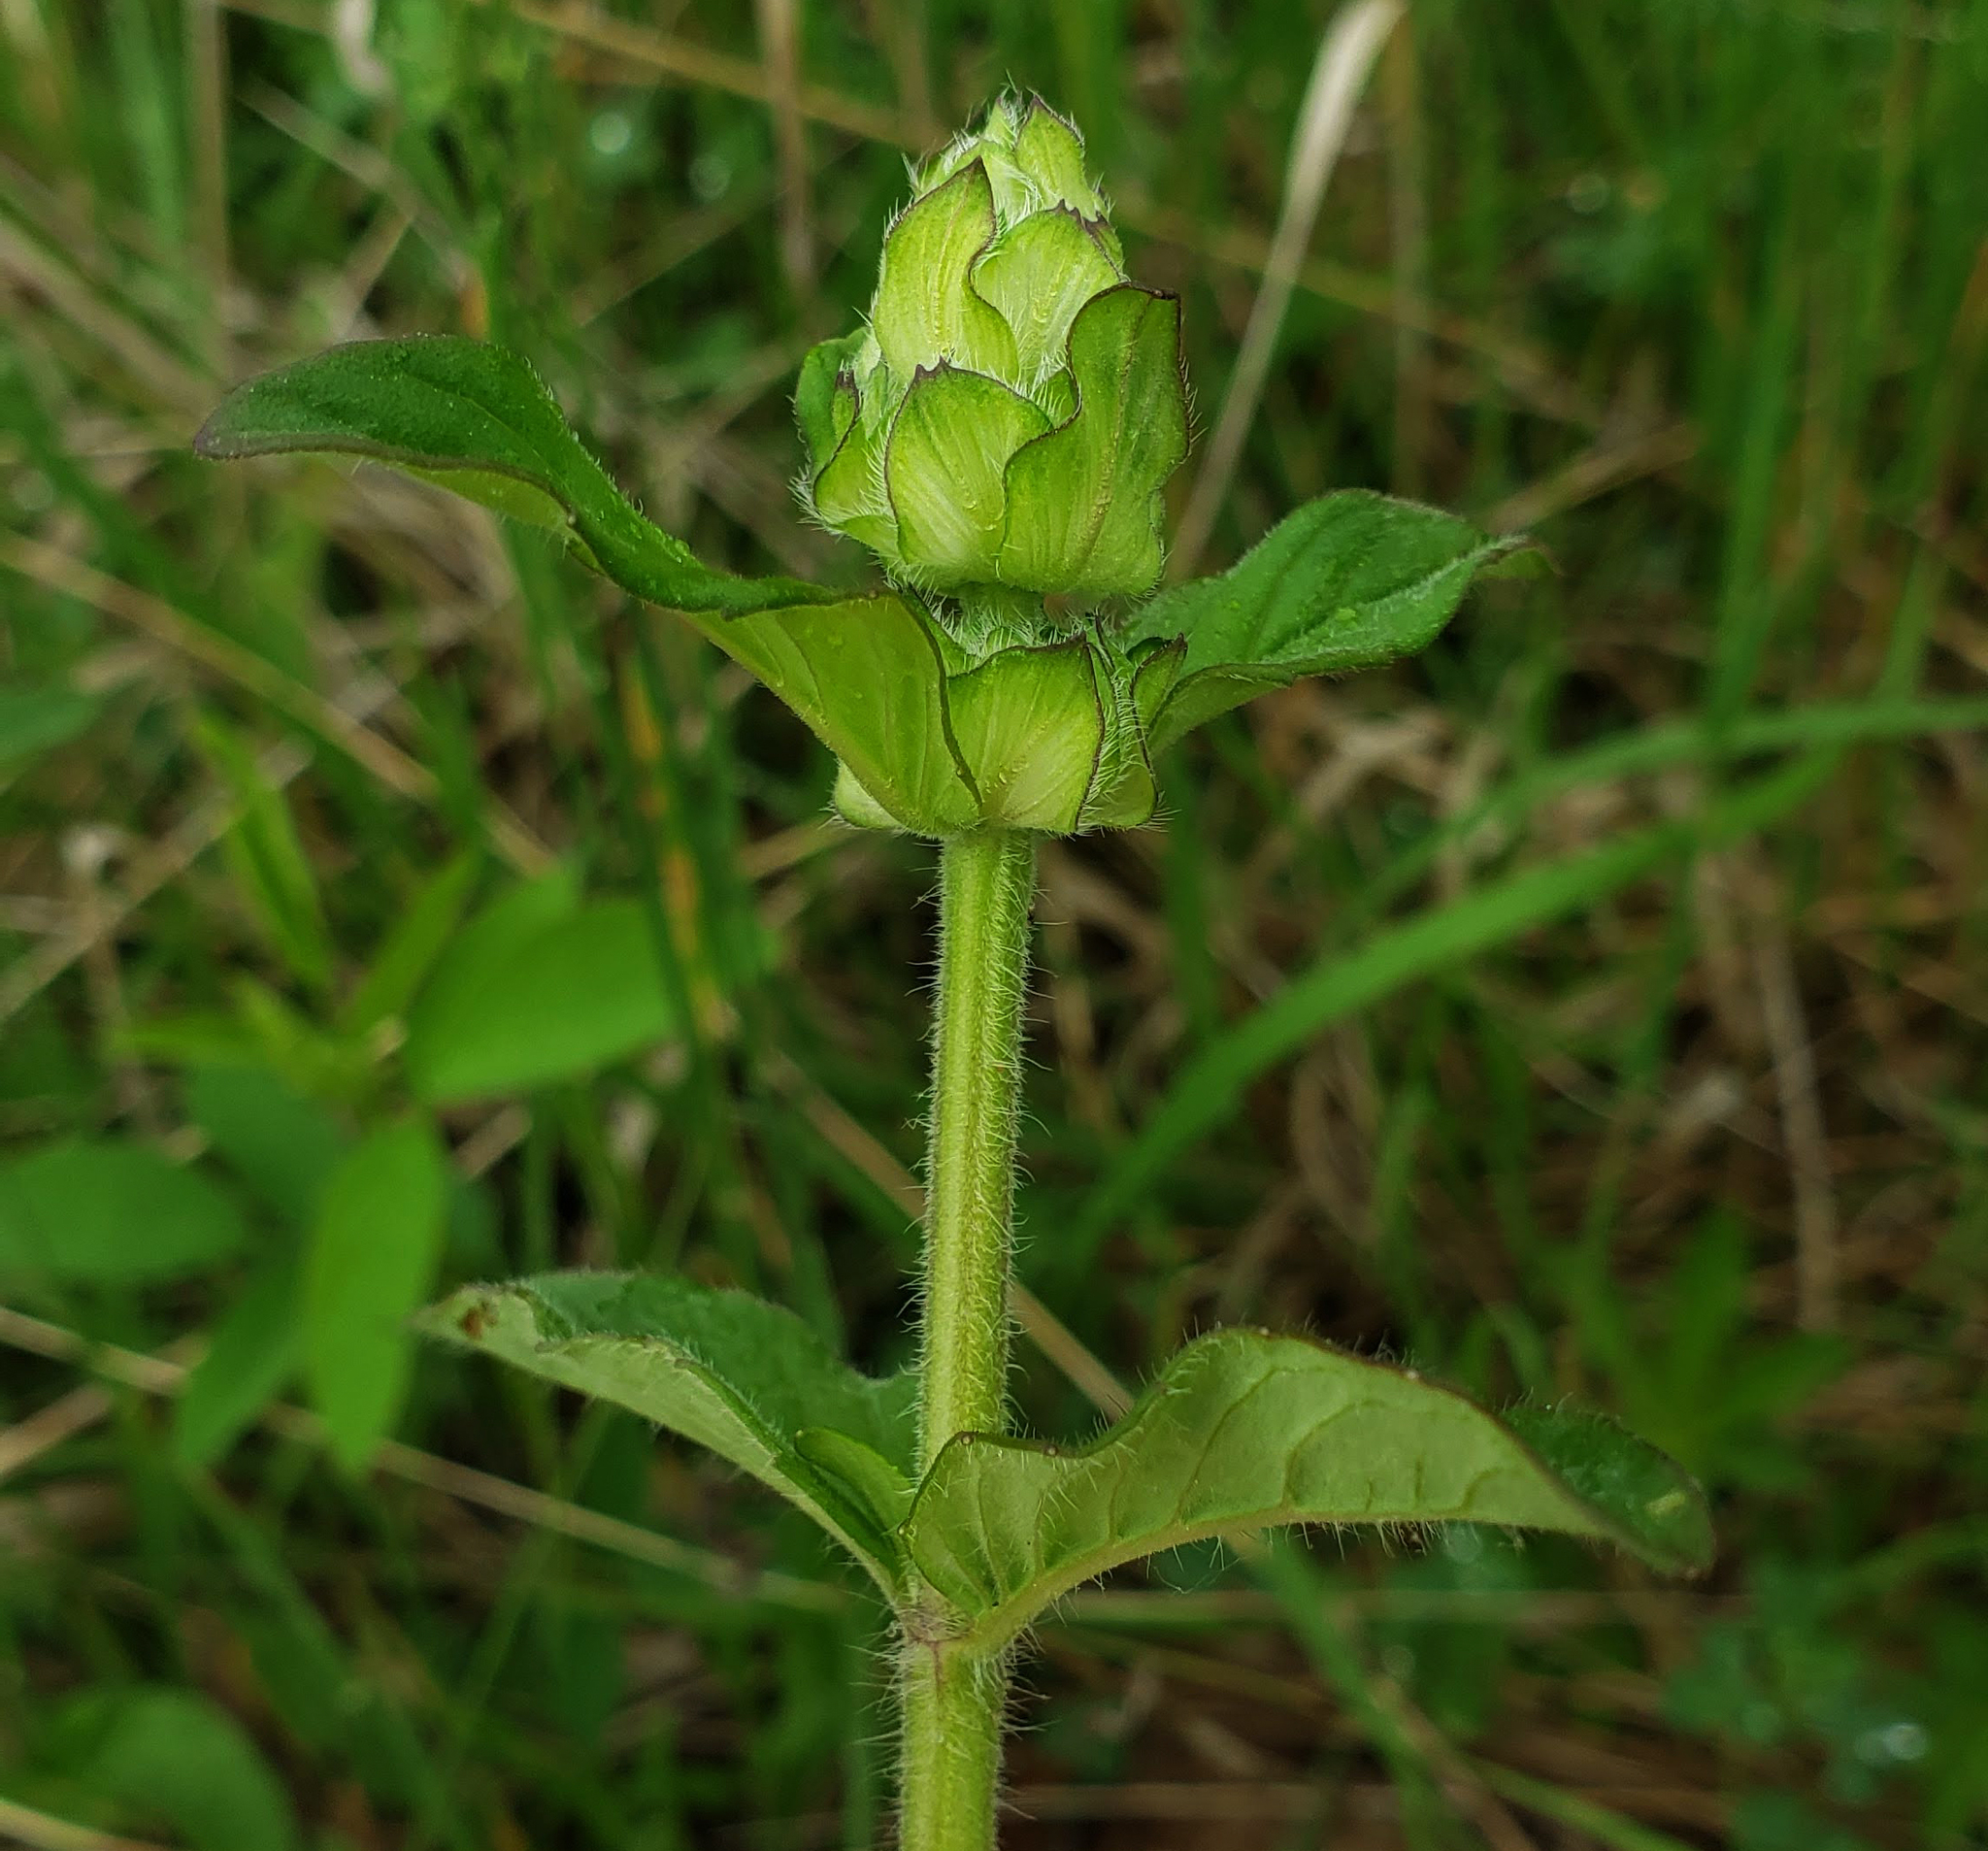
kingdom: Plantae
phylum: Tracheophyta
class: Magnoliopsida
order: Lamiales
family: Lamiaceae
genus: Blephilia
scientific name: Blephilia ciliata
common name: Downy blephilia
